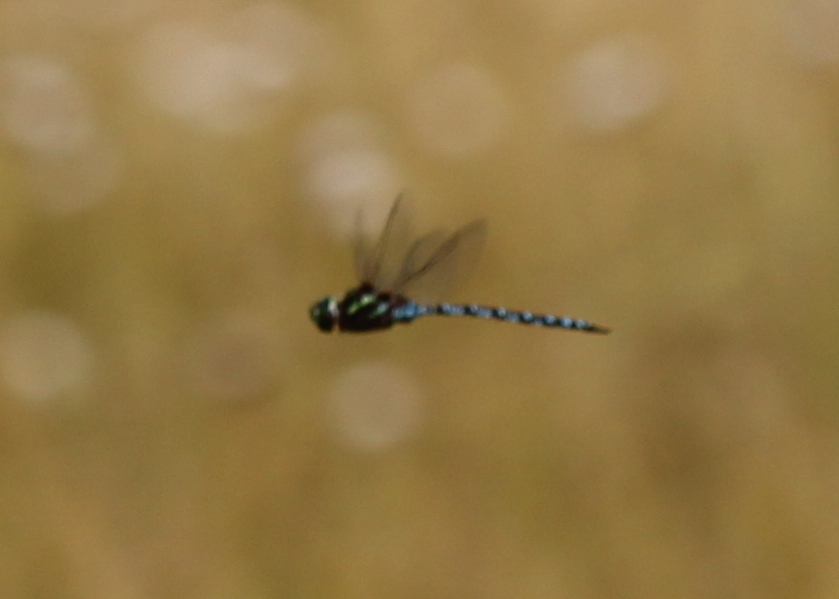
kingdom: Animalia
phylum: Arthropoda
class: Insecta
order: Odonata
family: Aeshnidae
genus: Aeshna
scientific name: Aeshna verticalis
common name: Green-striped darner
